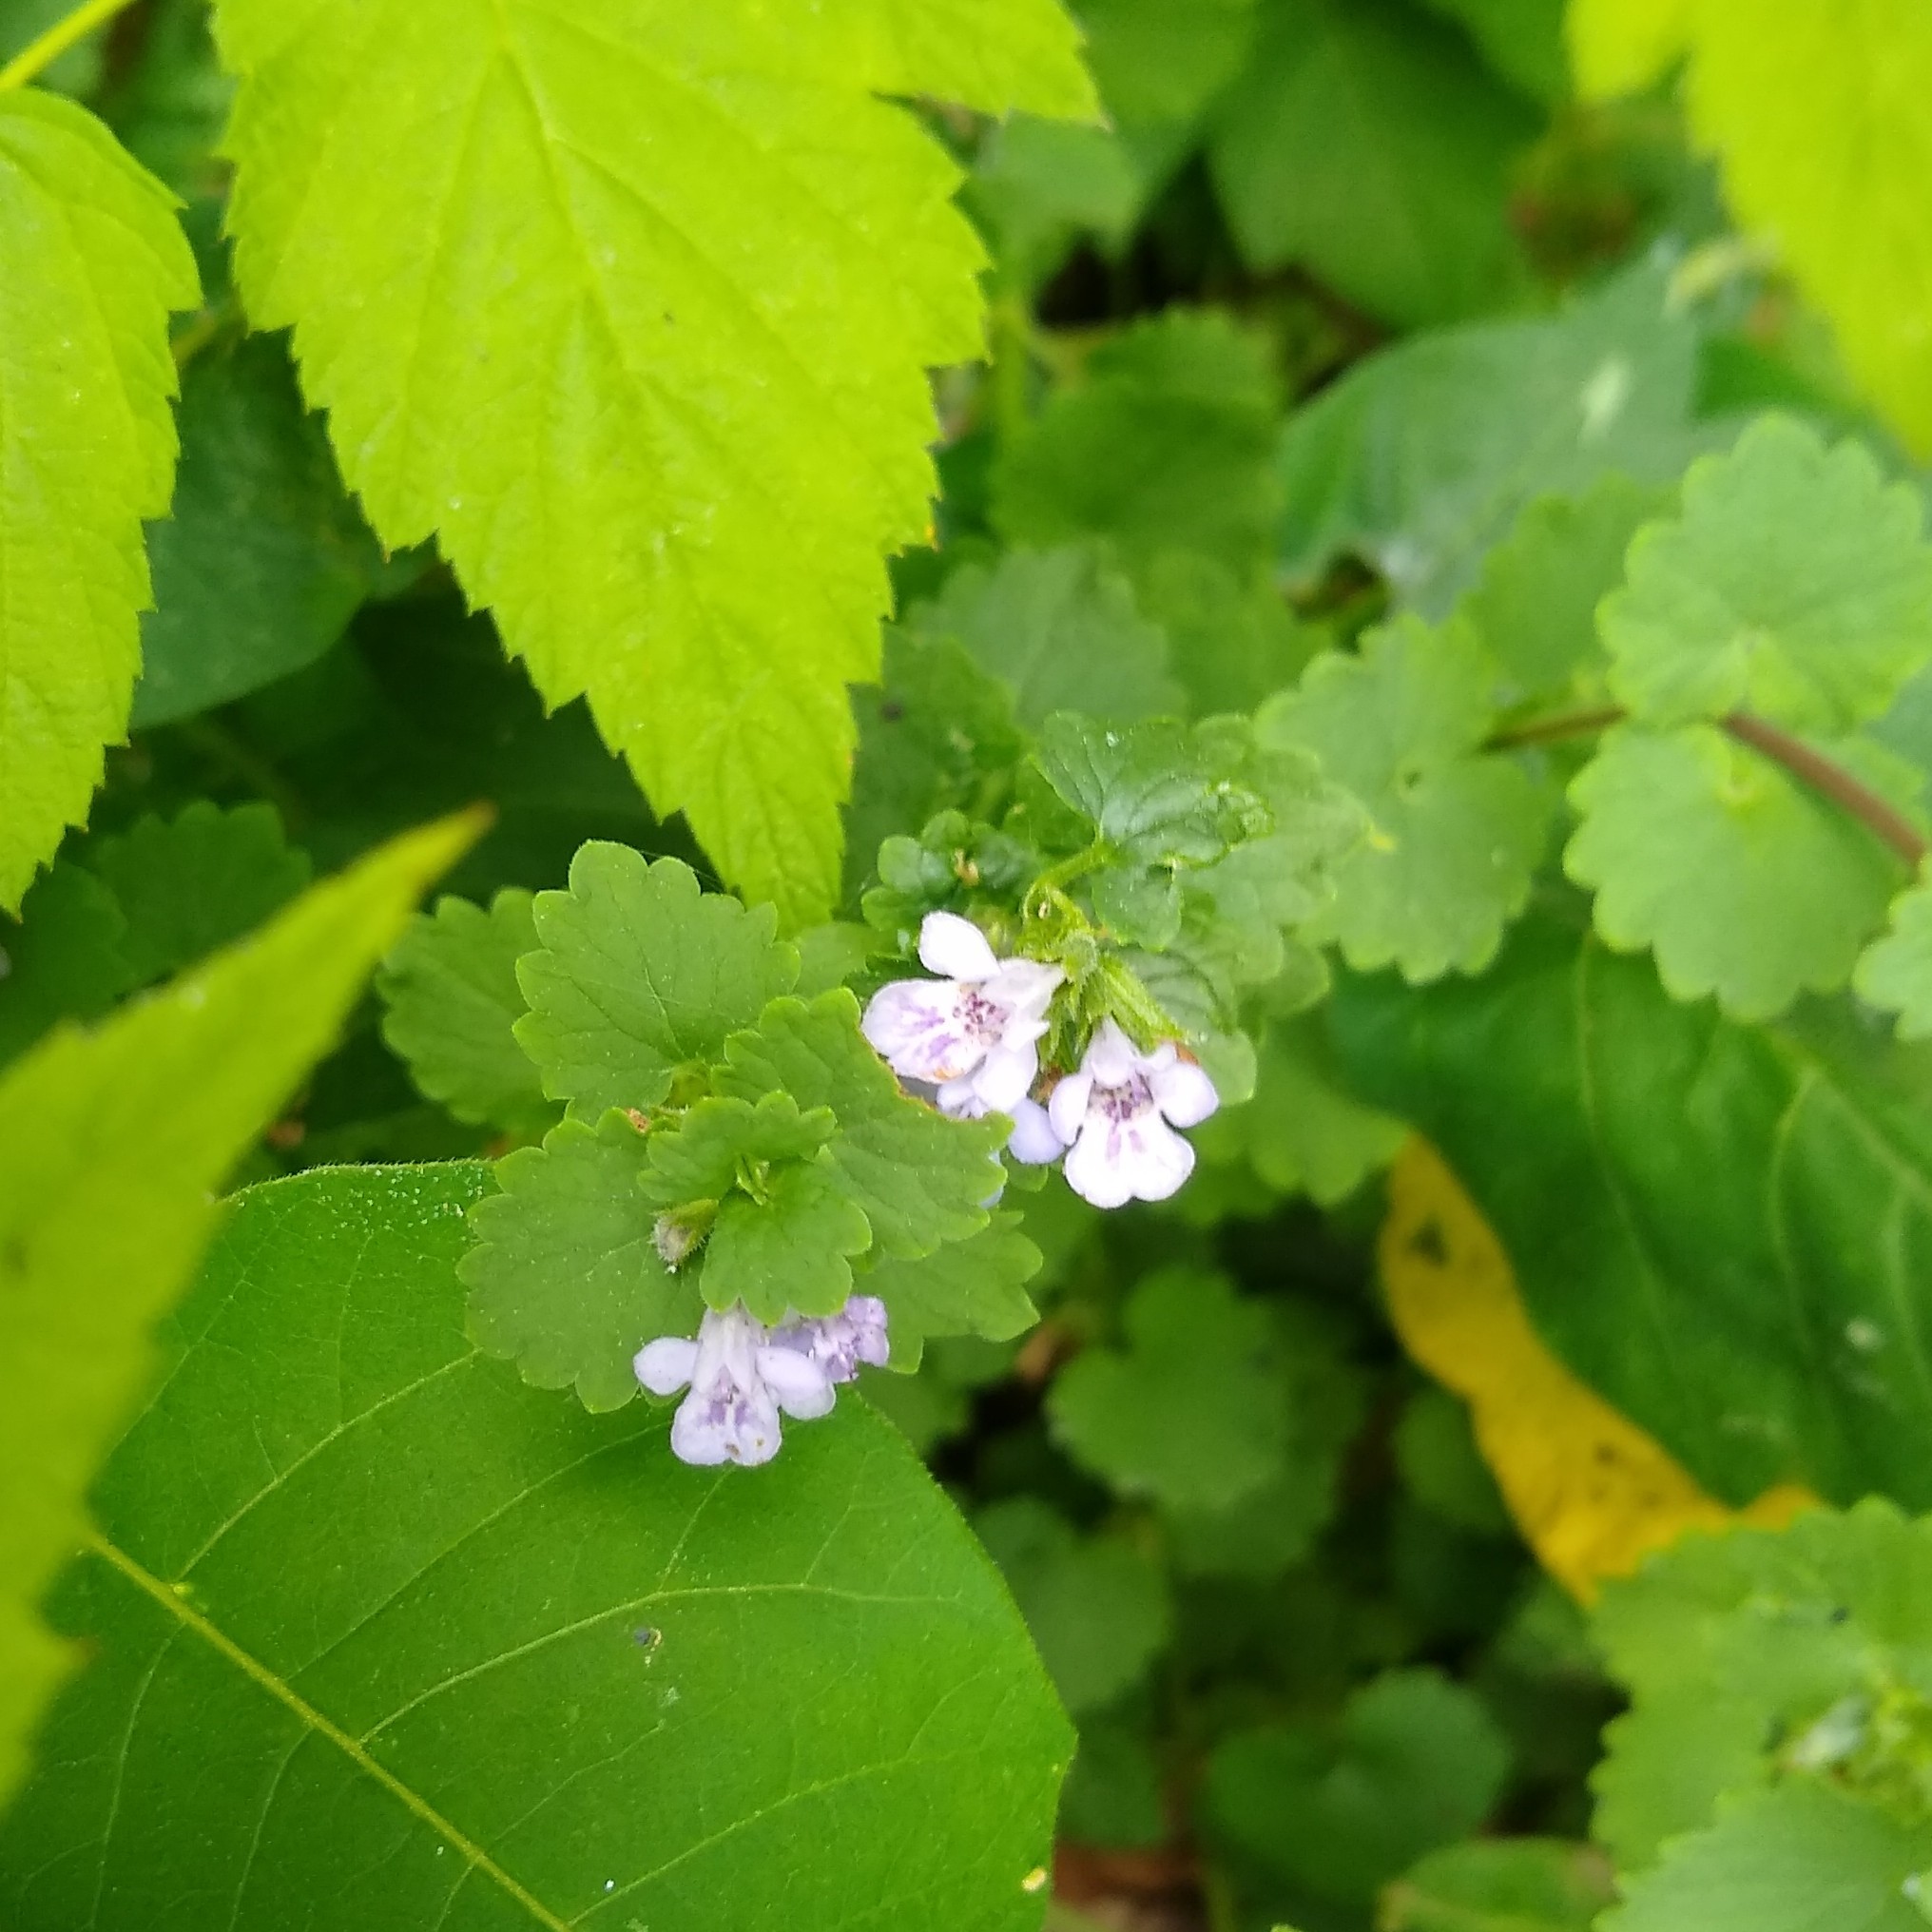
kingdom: Plantae
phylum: Tracheophyta
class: Magnoliopsida
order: Lamiales
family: Lamiaceae
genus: Glechoma
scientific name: Glechoma hederacea
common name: Ground ivy
